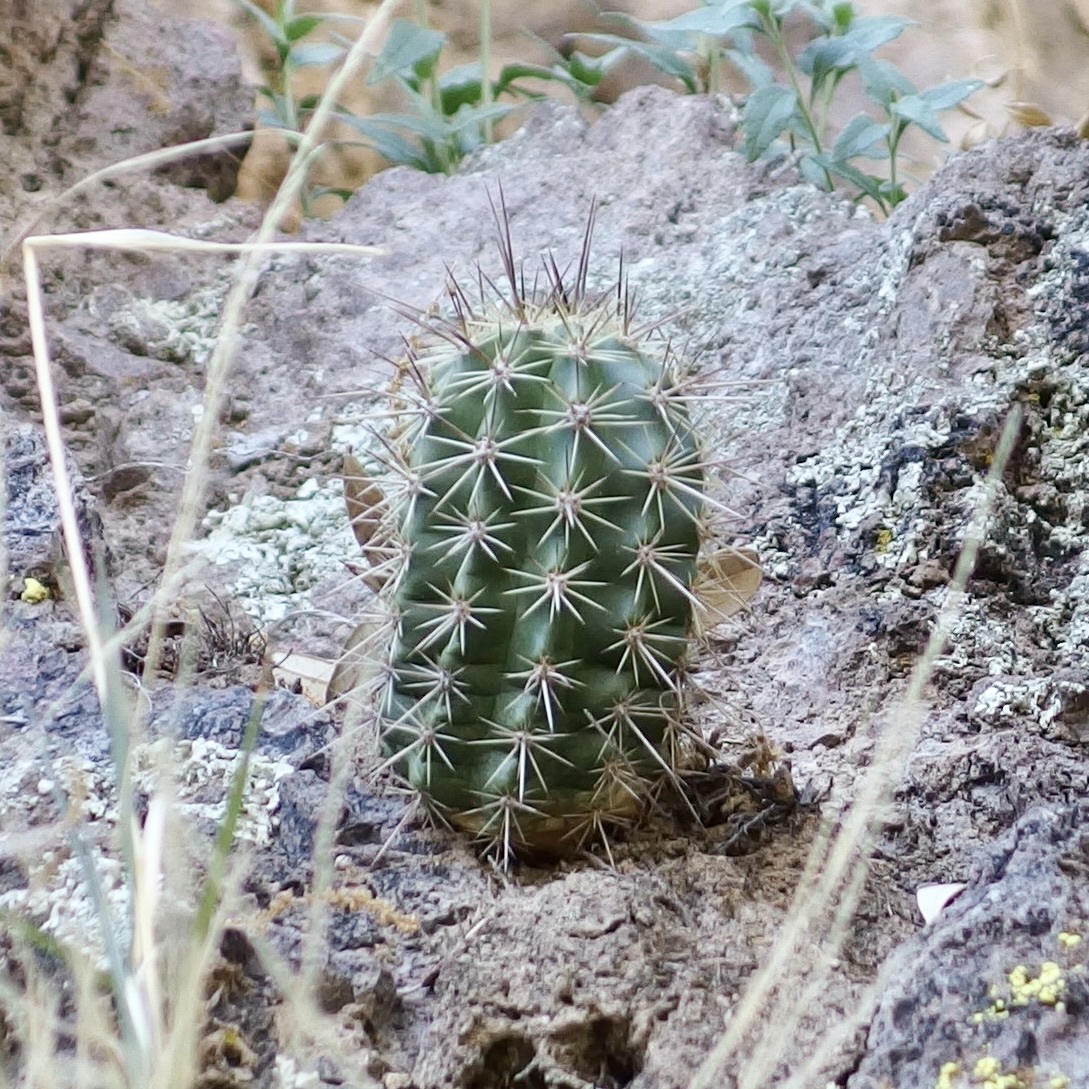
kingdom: Plantae
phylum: Tracheophyta
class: Magnoliopsida
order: Caryophyllales
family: Cactaceae
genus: Echinocereus
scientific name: Echinocereus arizonicus
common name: Arizona hedgehog cactus
